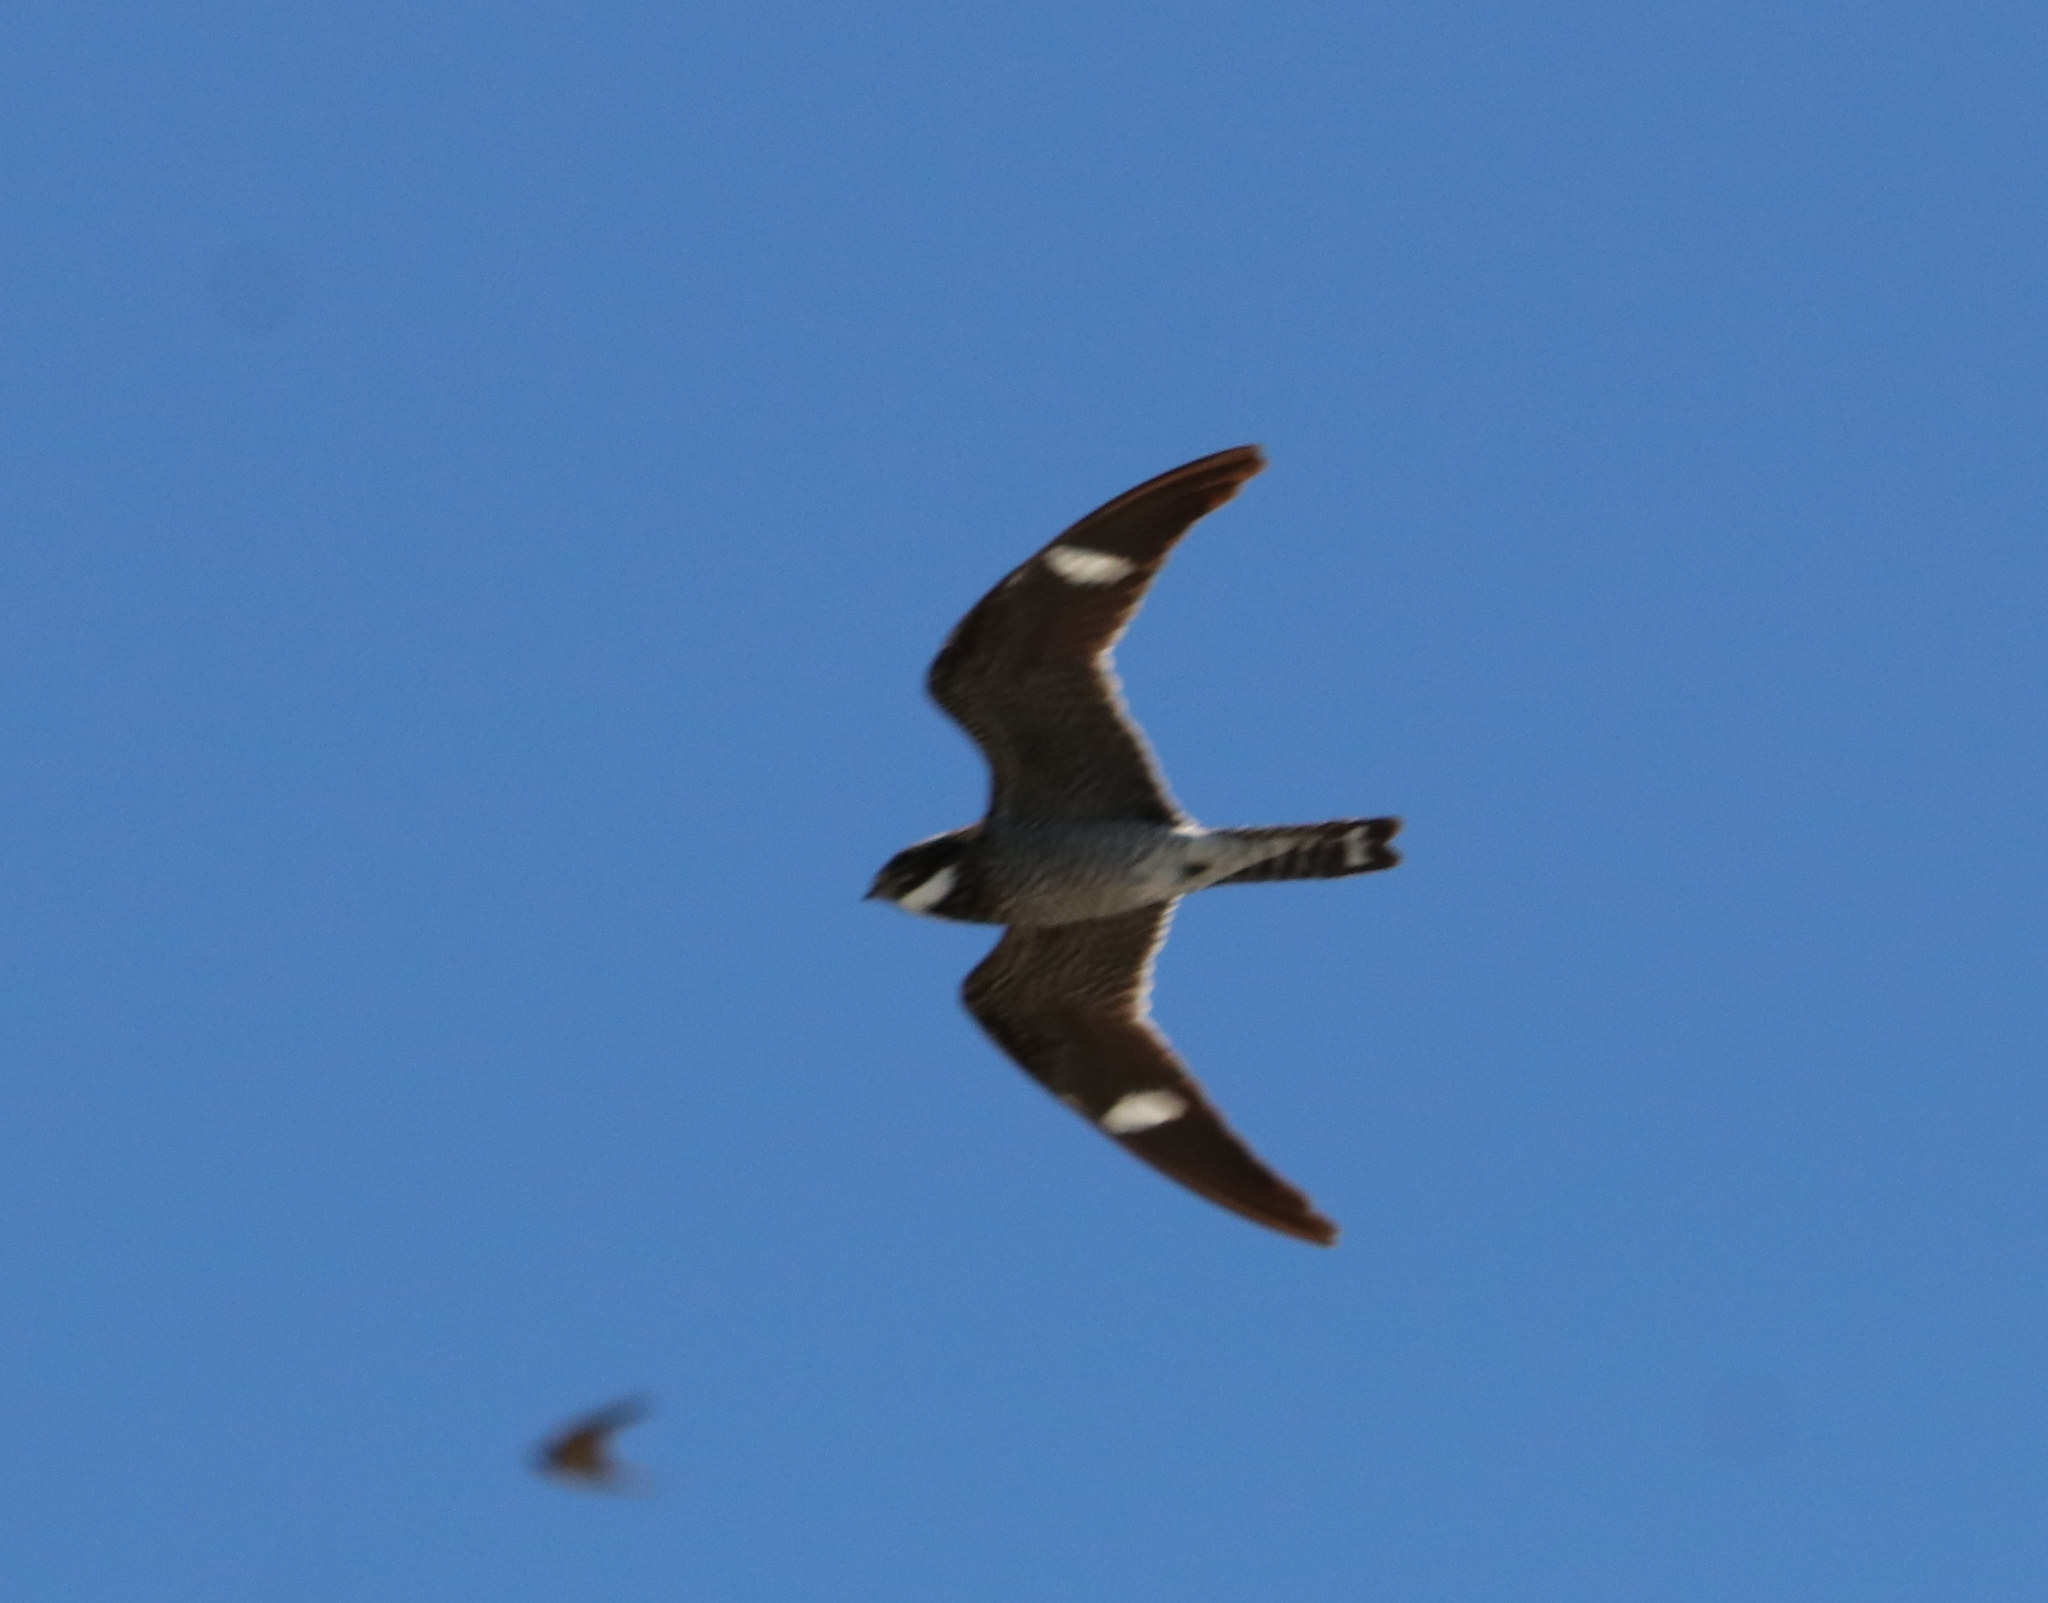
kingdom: Animalia
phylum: Chordata
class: Aves
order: Caprimulgiformes
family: Caprimulgidae
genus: Chordeiles
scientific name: Chordeiles minor
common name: Common nighthawk
